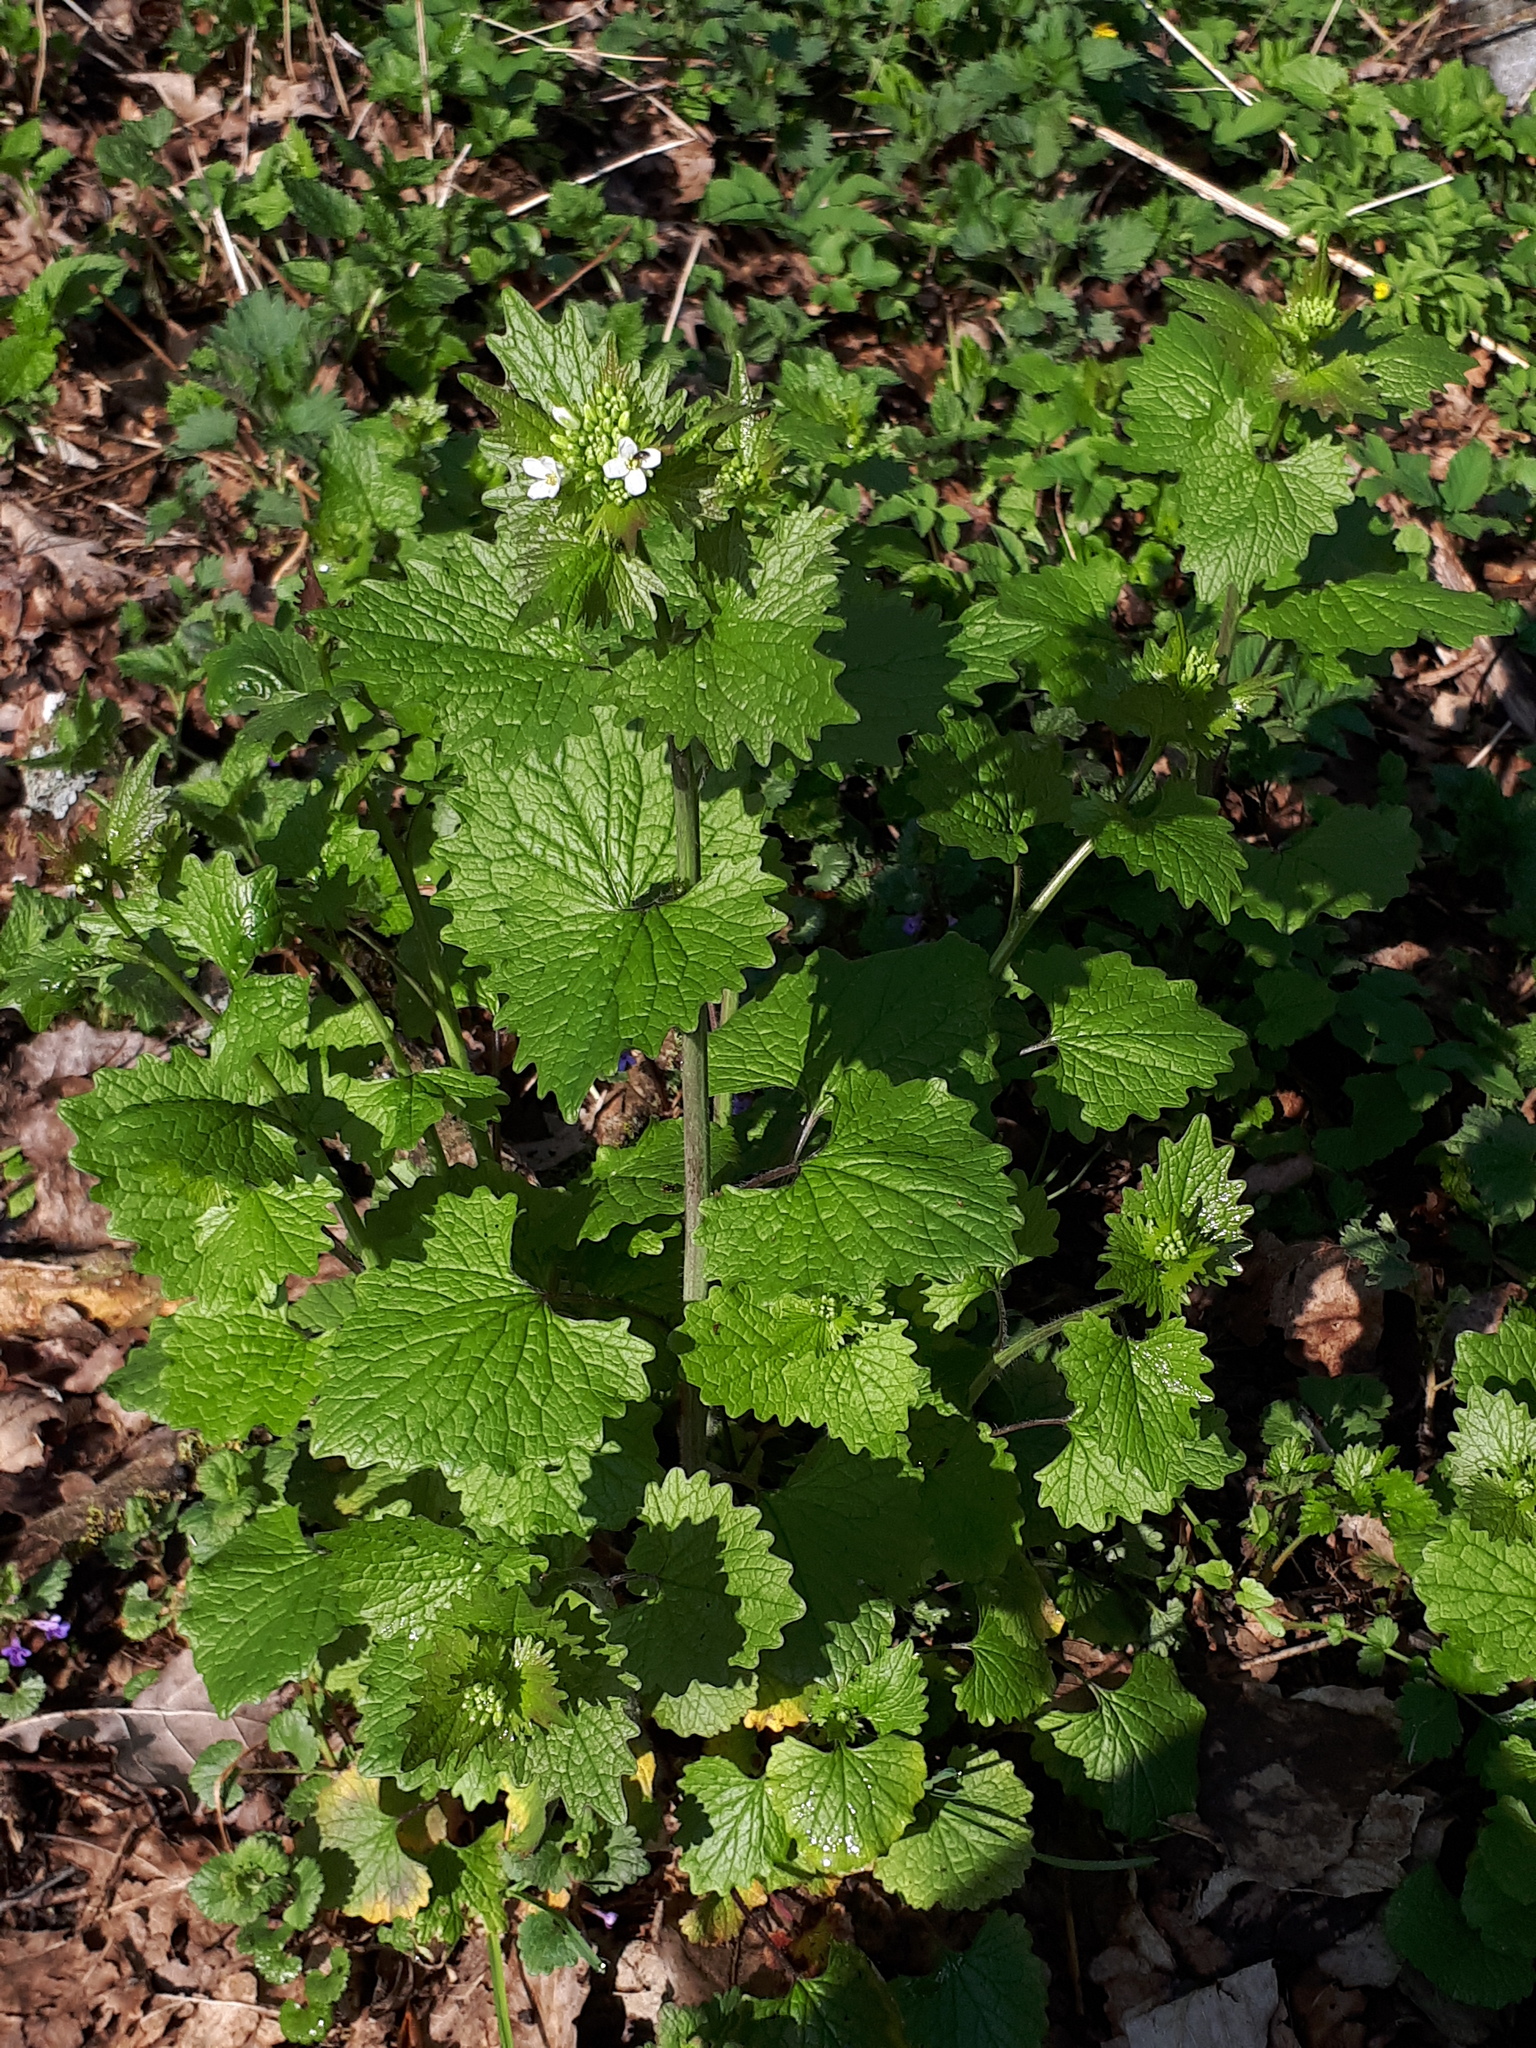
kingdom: Plantae
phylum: Tracheophyta
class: Magnoliopsida
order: Brassicales
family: Brassicaceae
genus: Alliaria
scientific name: Alliaria petiolata
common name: Garlic mustard
